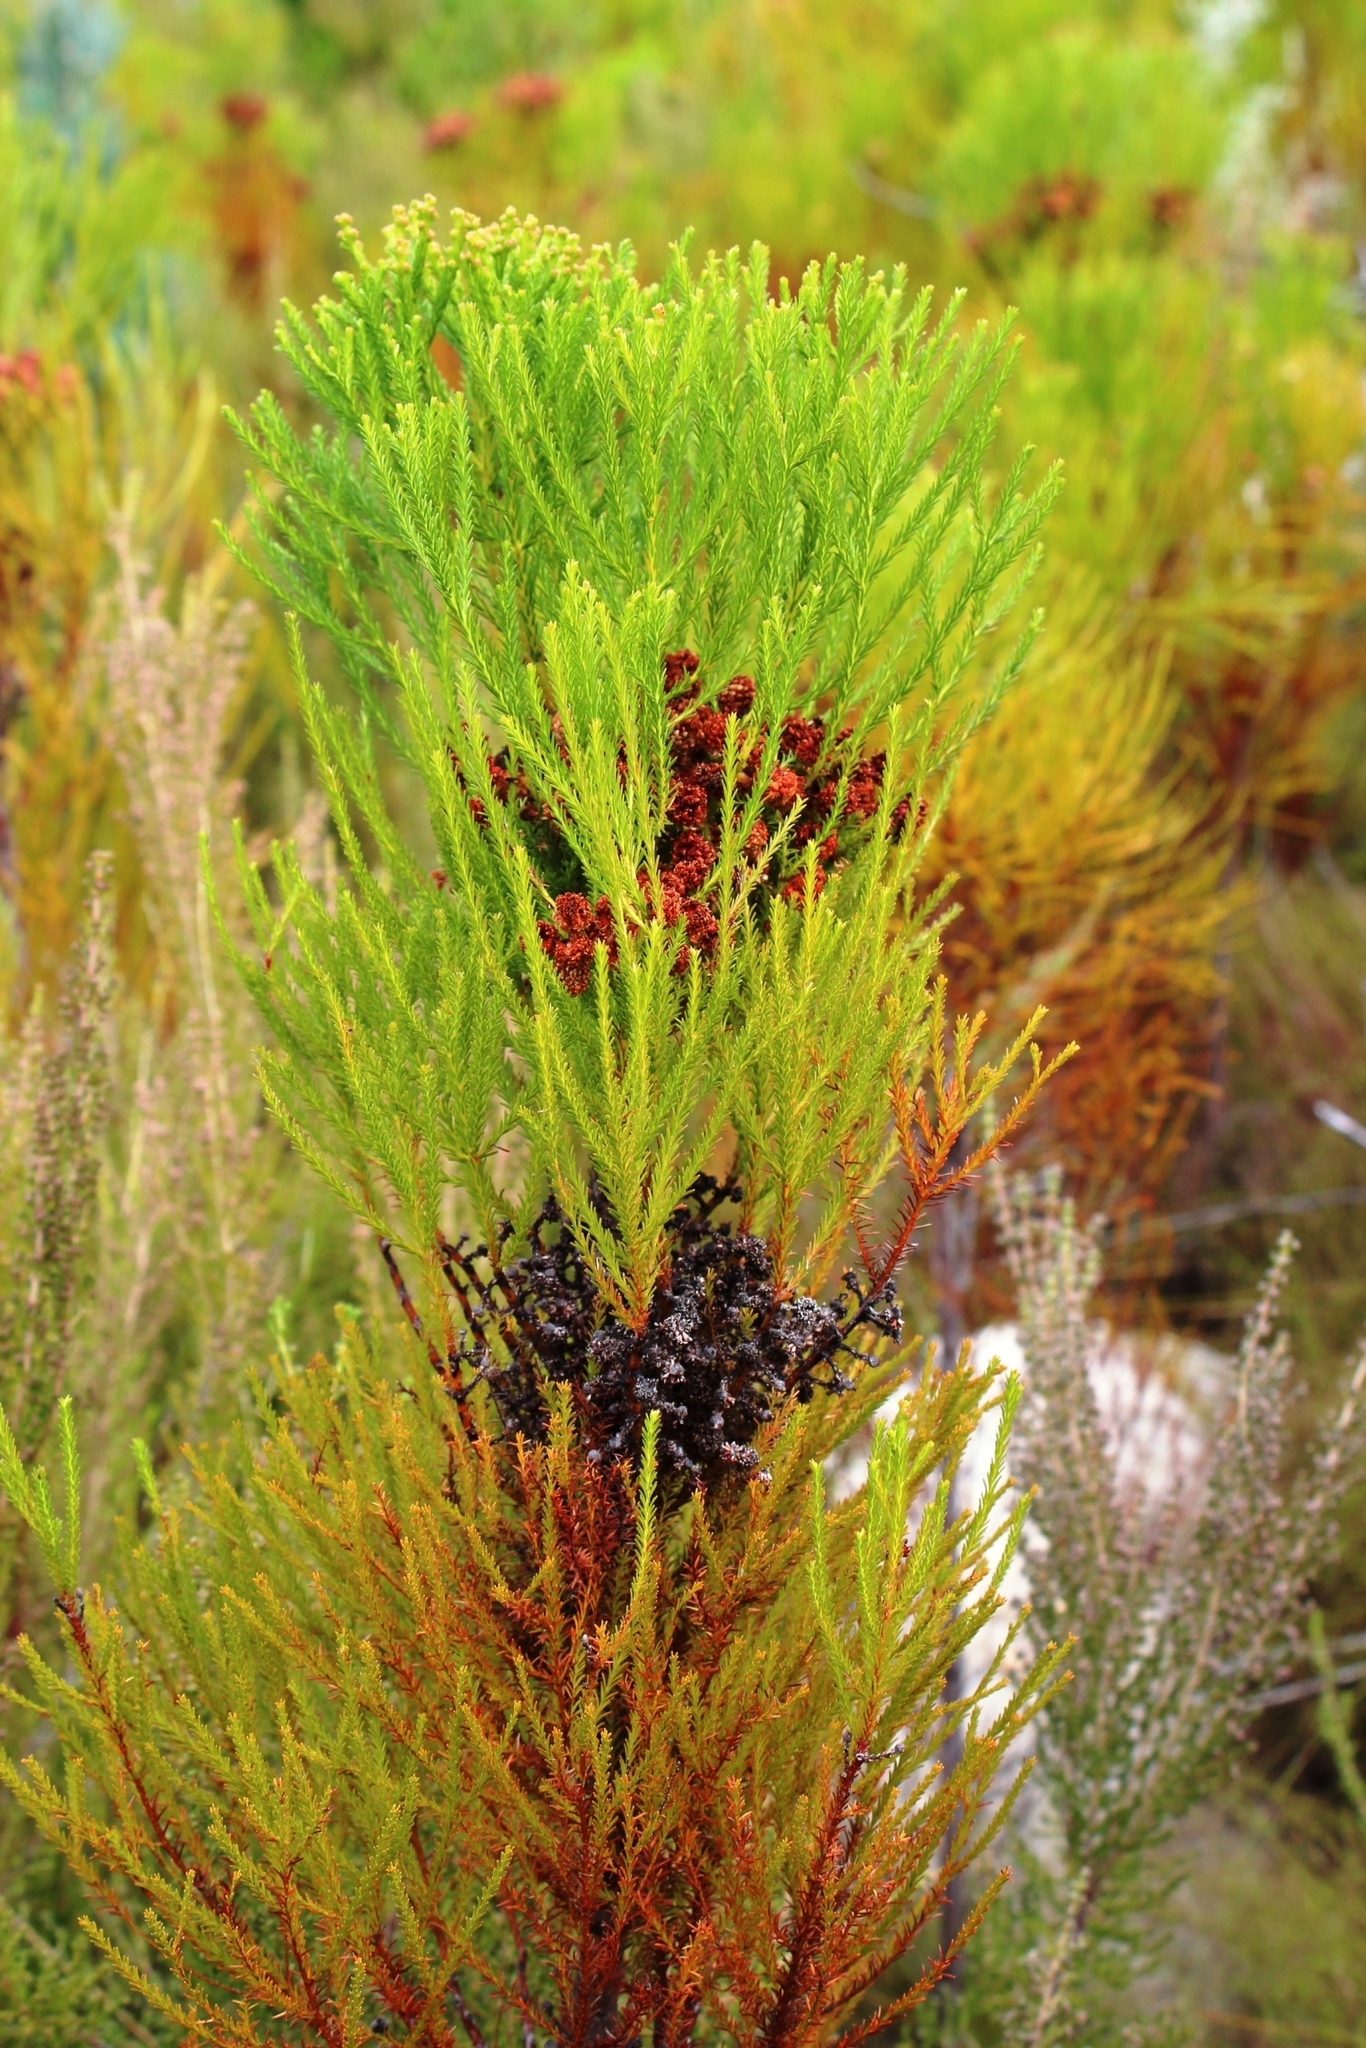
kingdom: Plantae
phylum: Tracheophyta
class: Magnoliopsida
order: Bruniales
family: Bruniaceae
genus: Berzelia
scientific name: Berzelia lanuginosa
